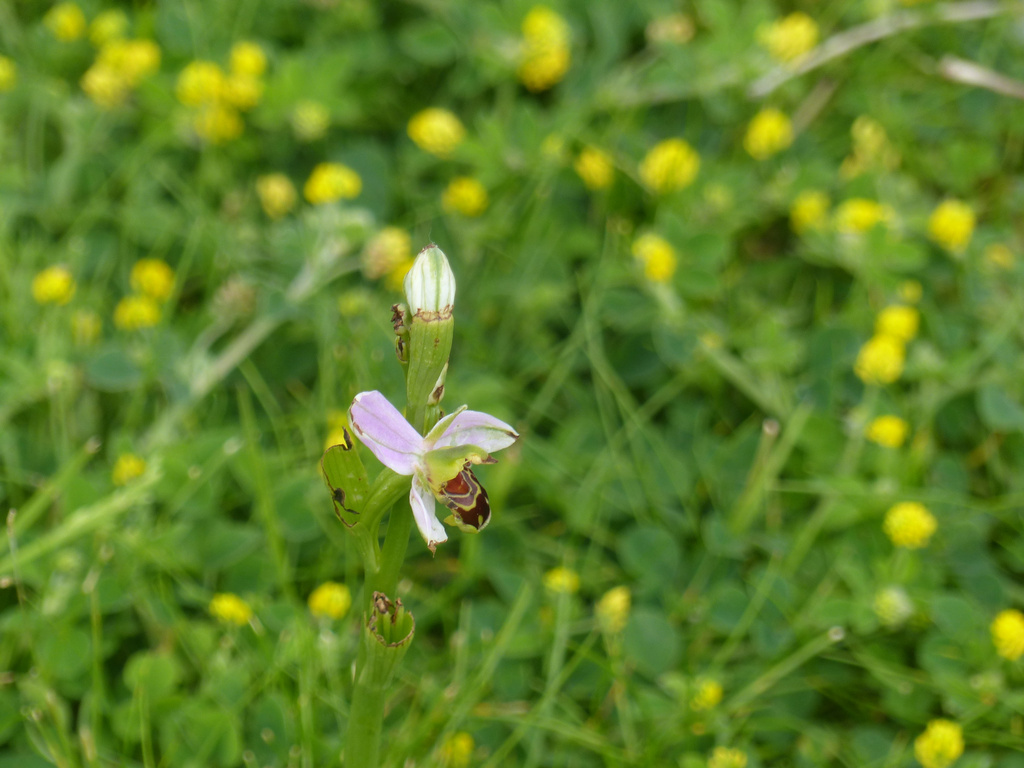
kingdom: Plantae
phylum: Tracheophyta
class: Liliopsida
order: Asparagales
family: Orchidaceae
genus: Ophrys
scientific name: Ophrys apifera
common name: Bee orchid
